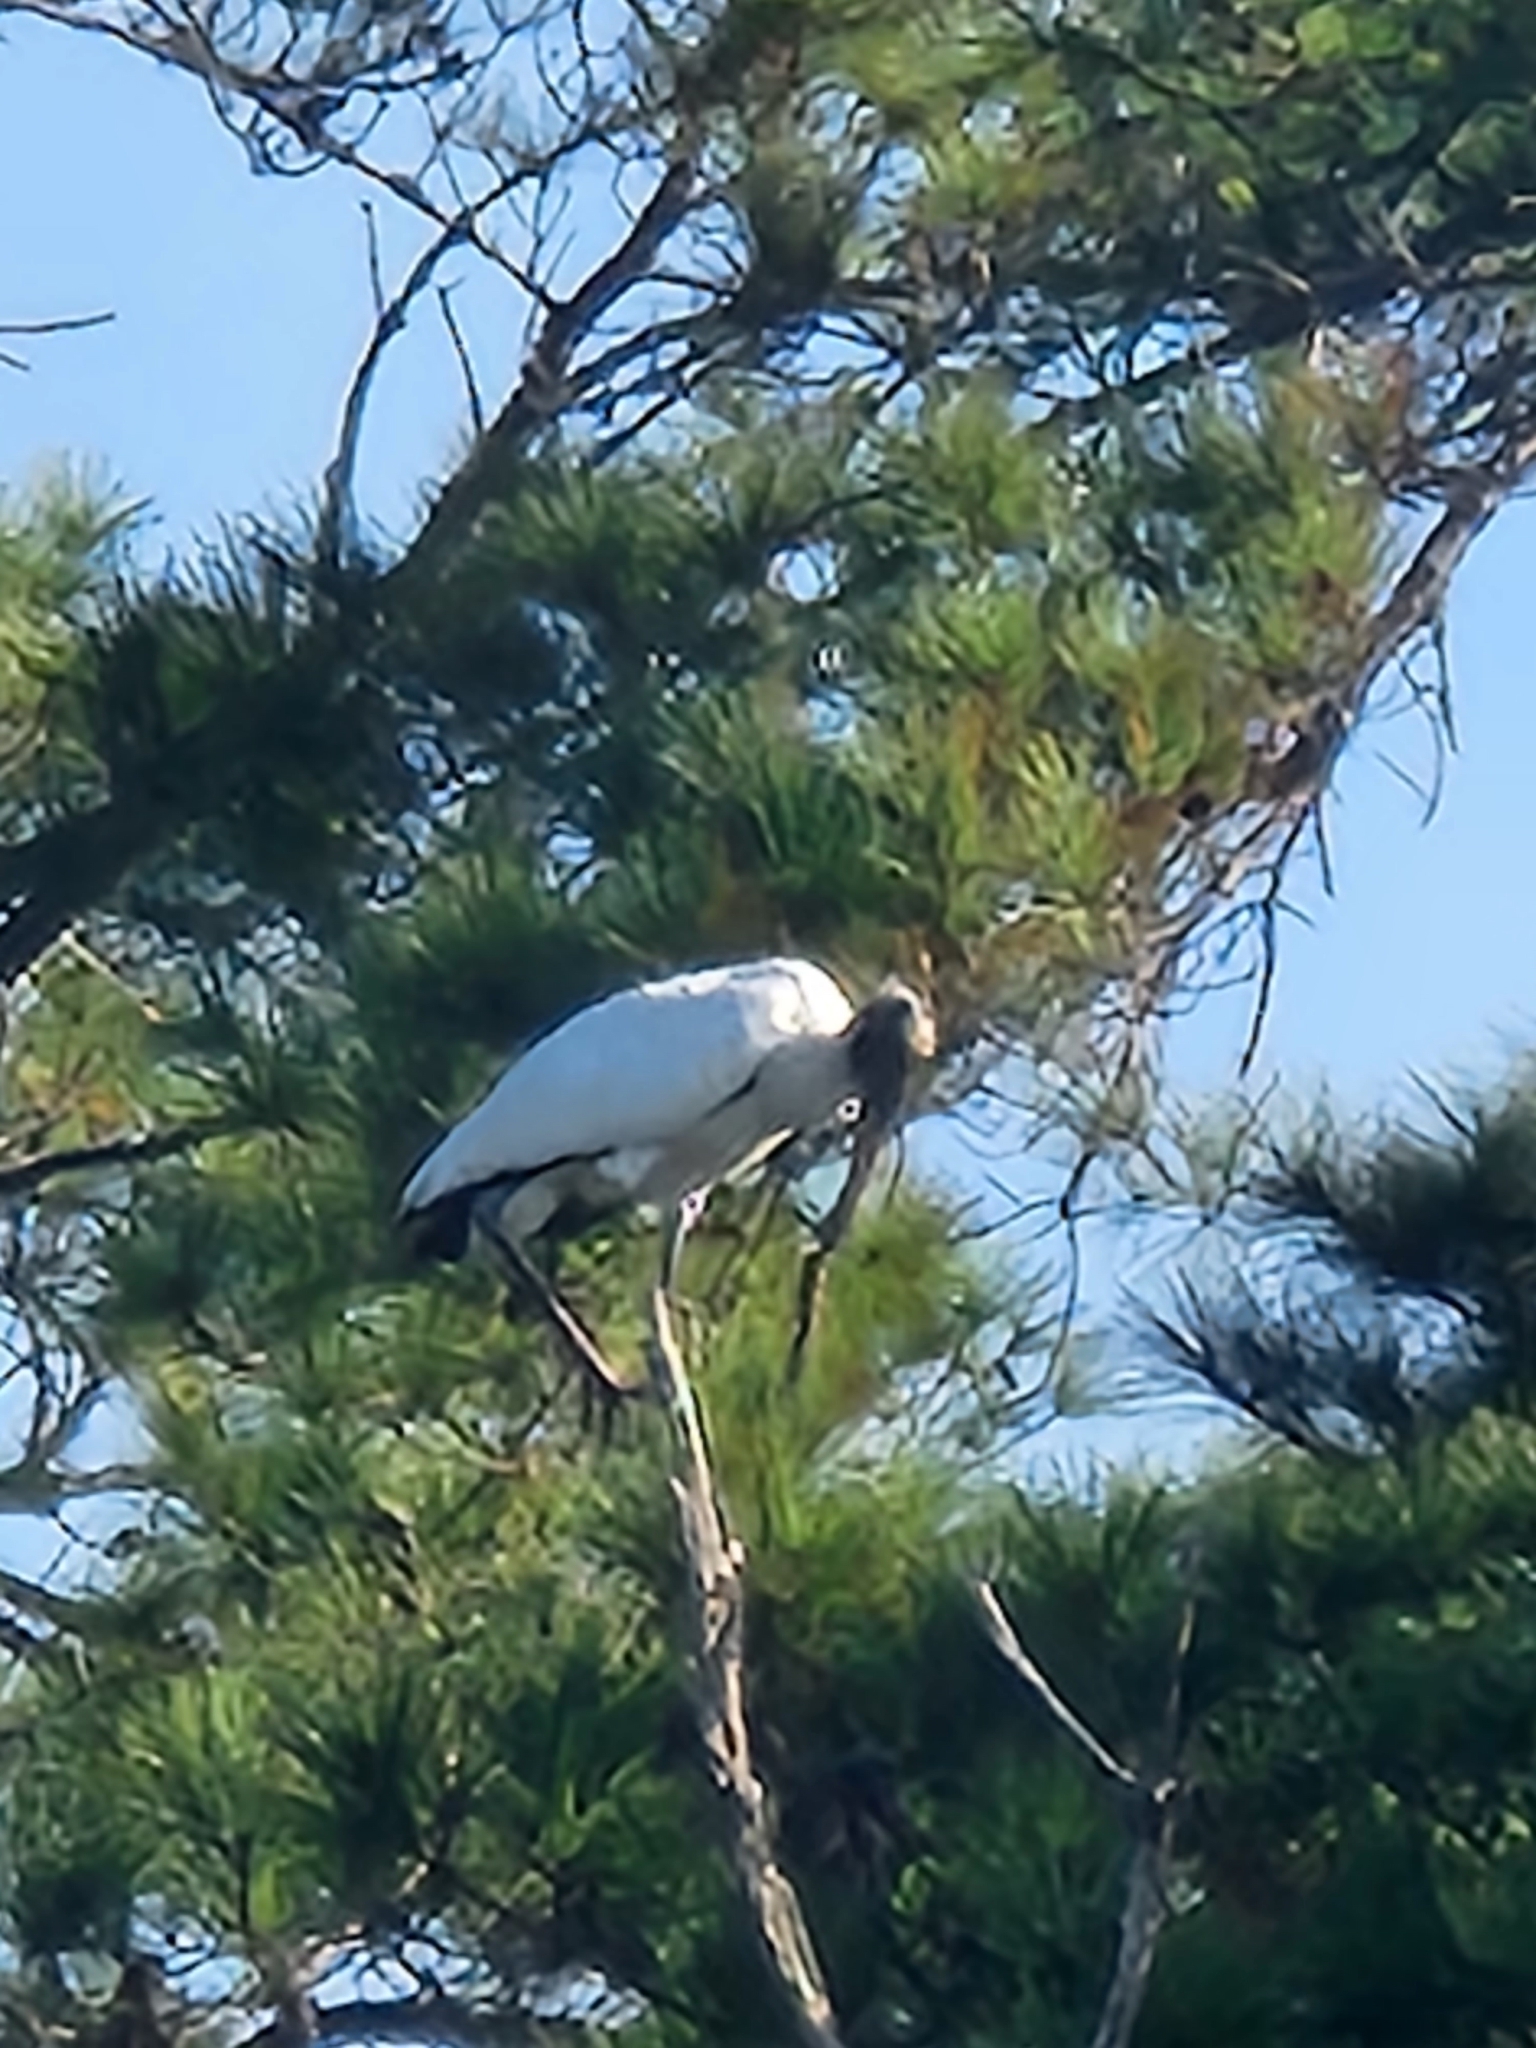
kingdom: Animalia
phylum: Chordata
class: Aves
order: Ciconiiformes
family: Ciconiidae
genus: Mycteria
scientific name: Mycteria americana
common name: Wood stork
